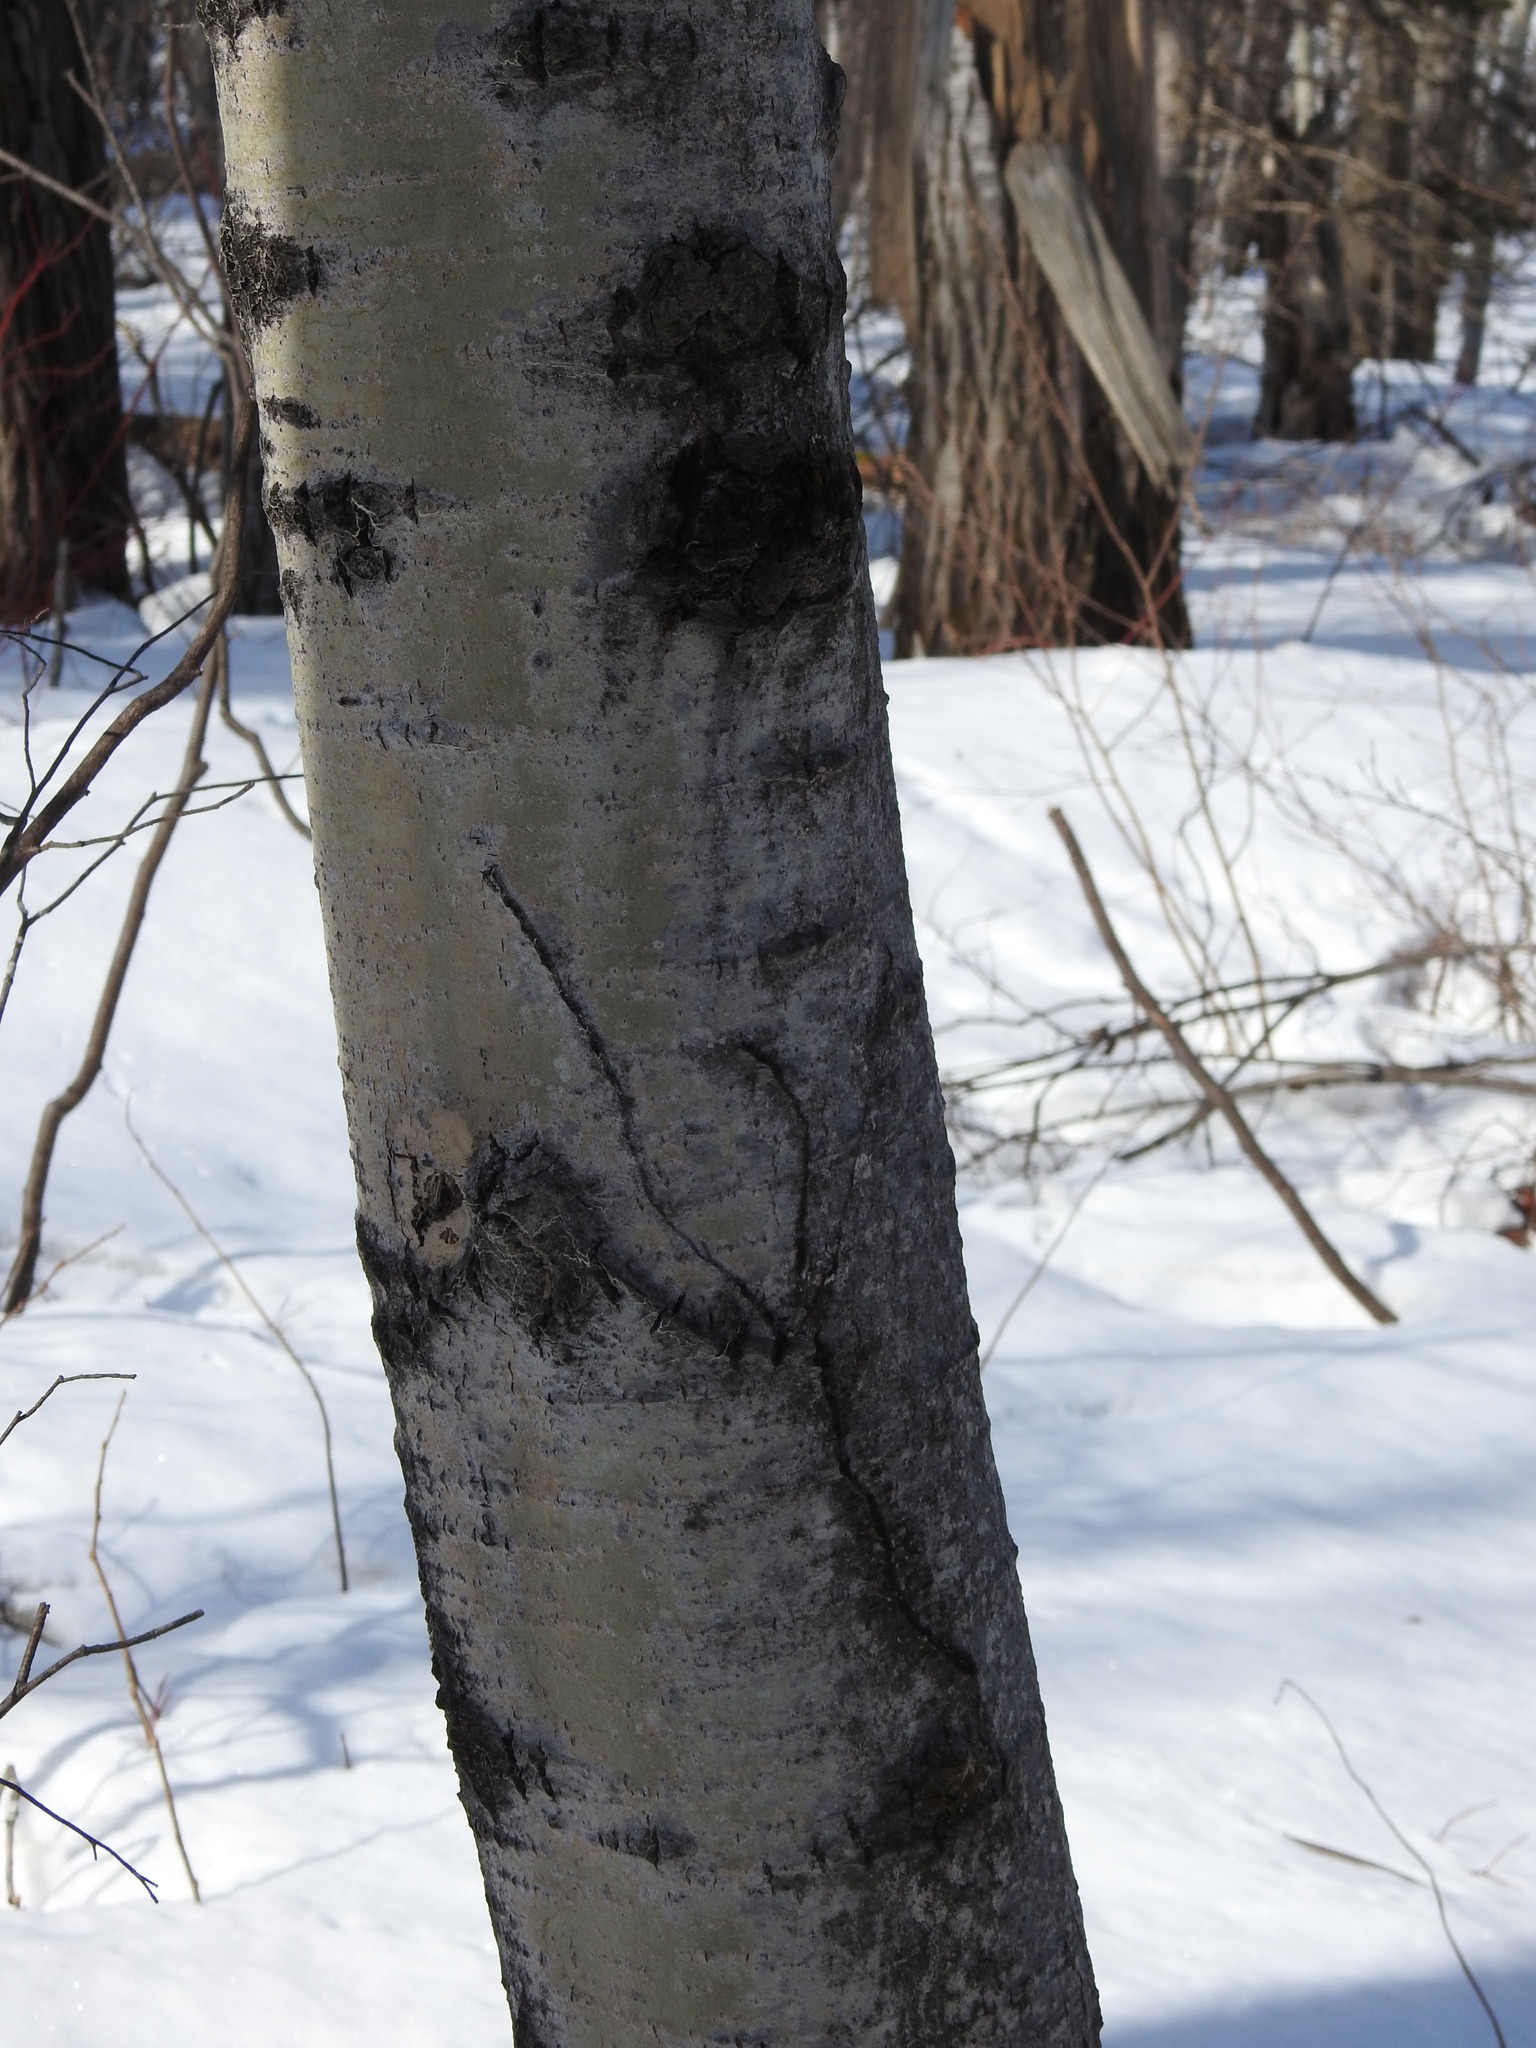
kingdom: Plantae
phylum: Tracheophyta
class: Magnoliopsida
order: Malpighiales
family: Salicaceae
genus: Populus
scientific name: Populus tremuloides
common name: Quaking aspen
